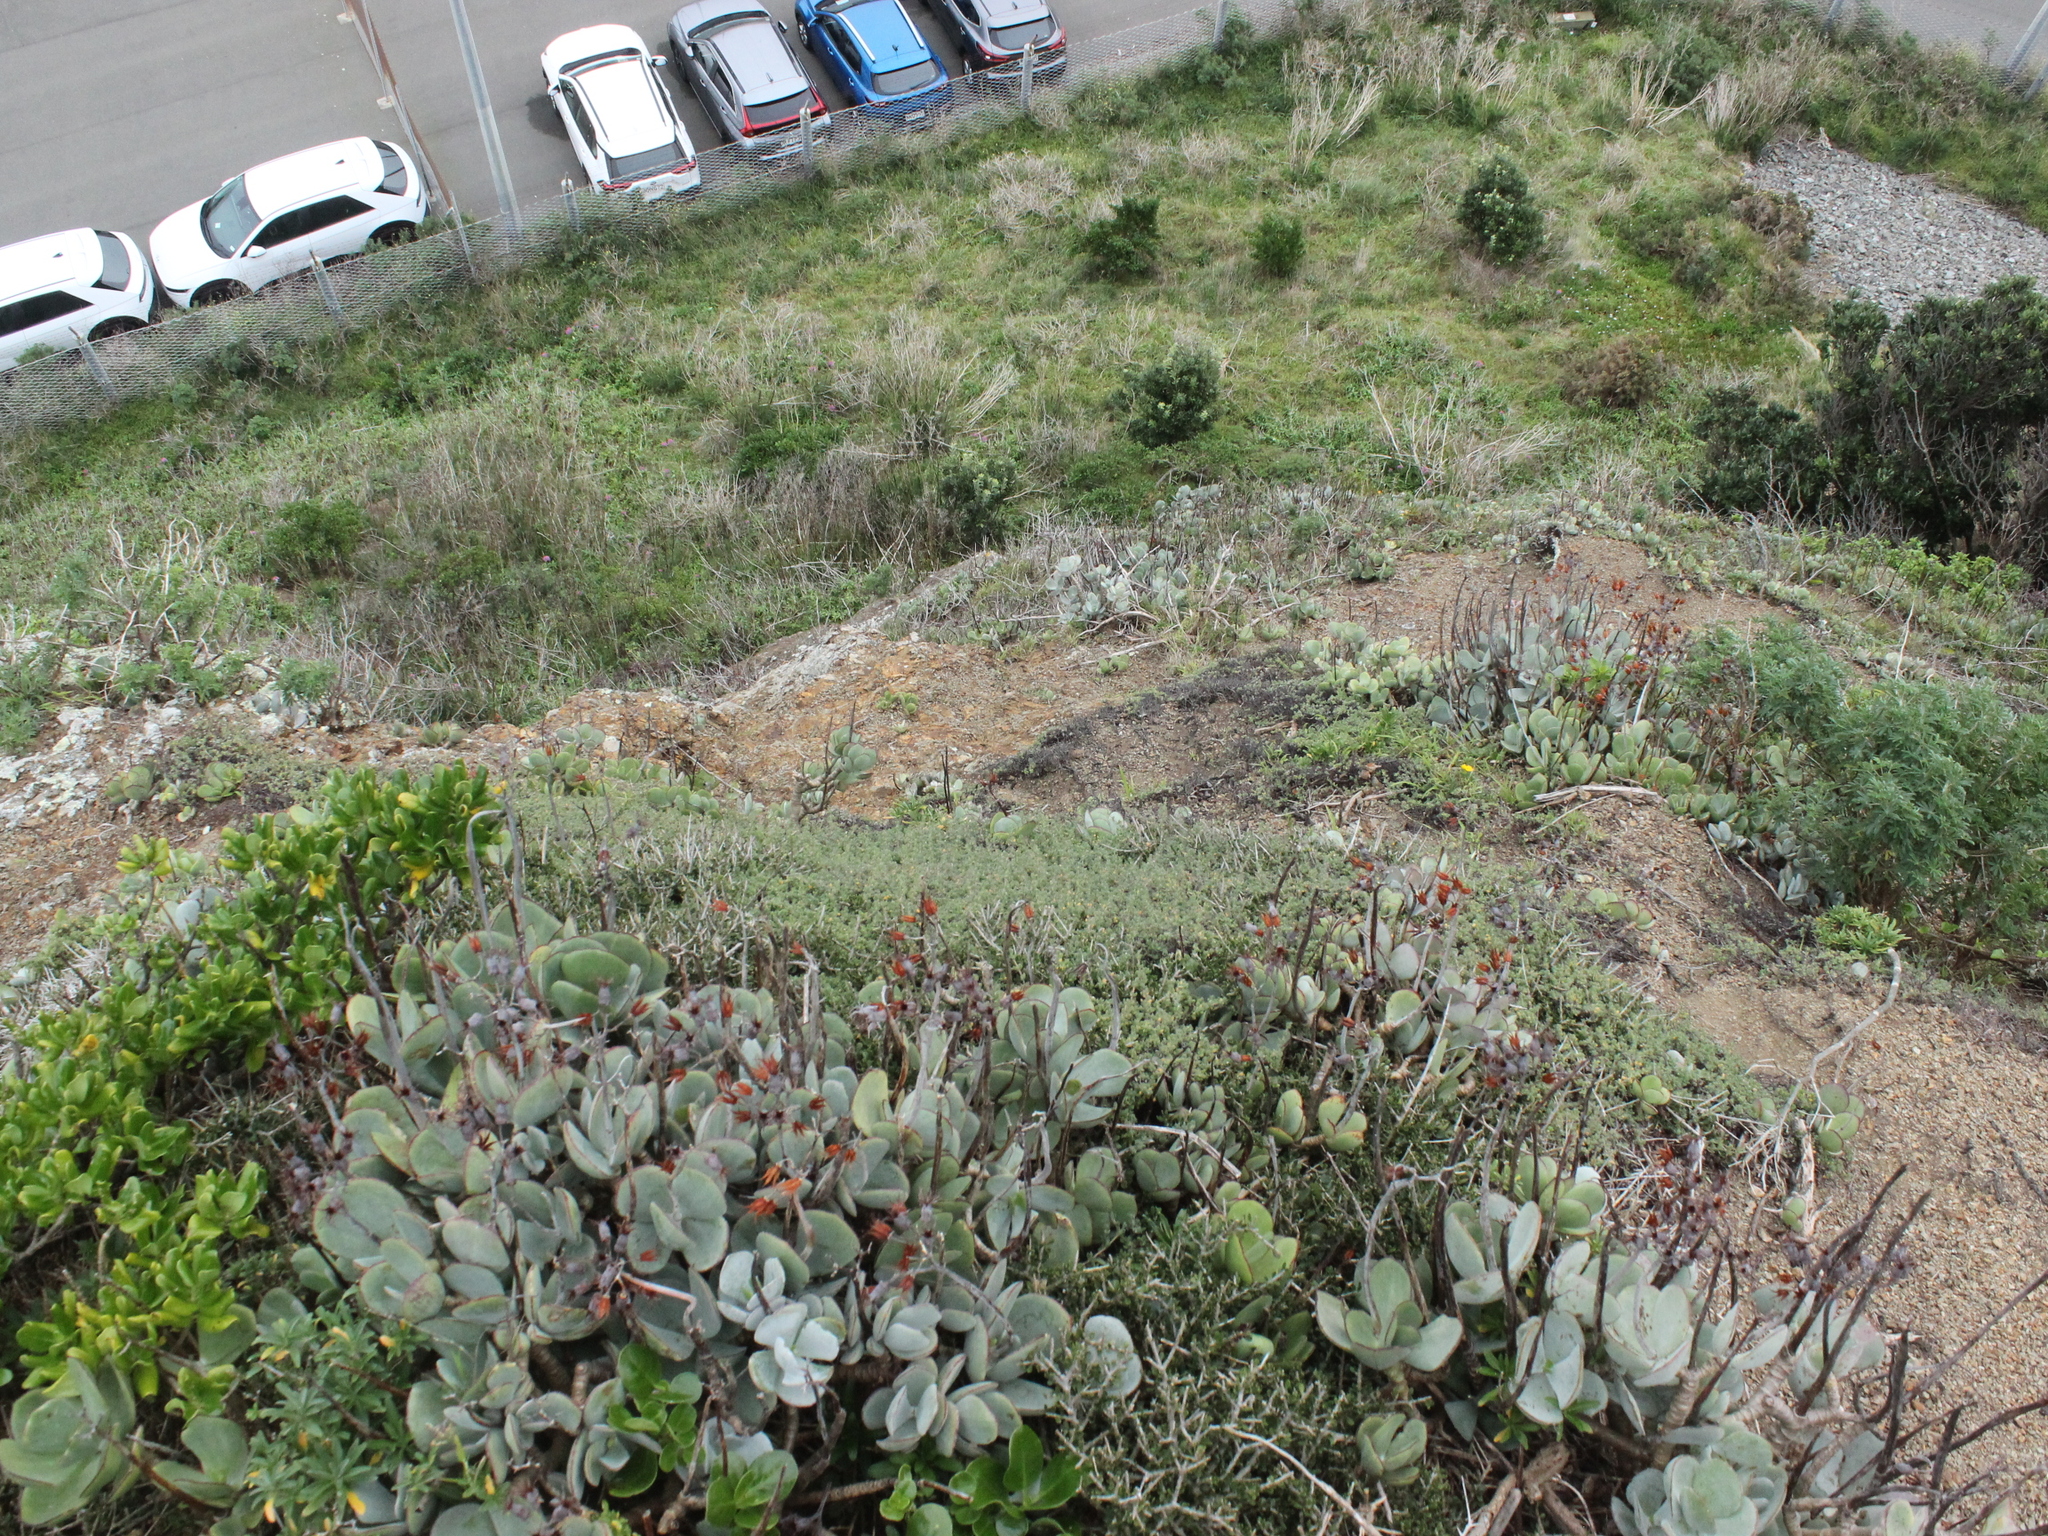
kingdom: Plantae
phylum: Tracheophyta
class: Magnoliopsida
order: Saxifragales
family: Crassulaceae
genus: Cotyledon
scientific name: Cotyledon orbiculata
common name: Pig's ear
